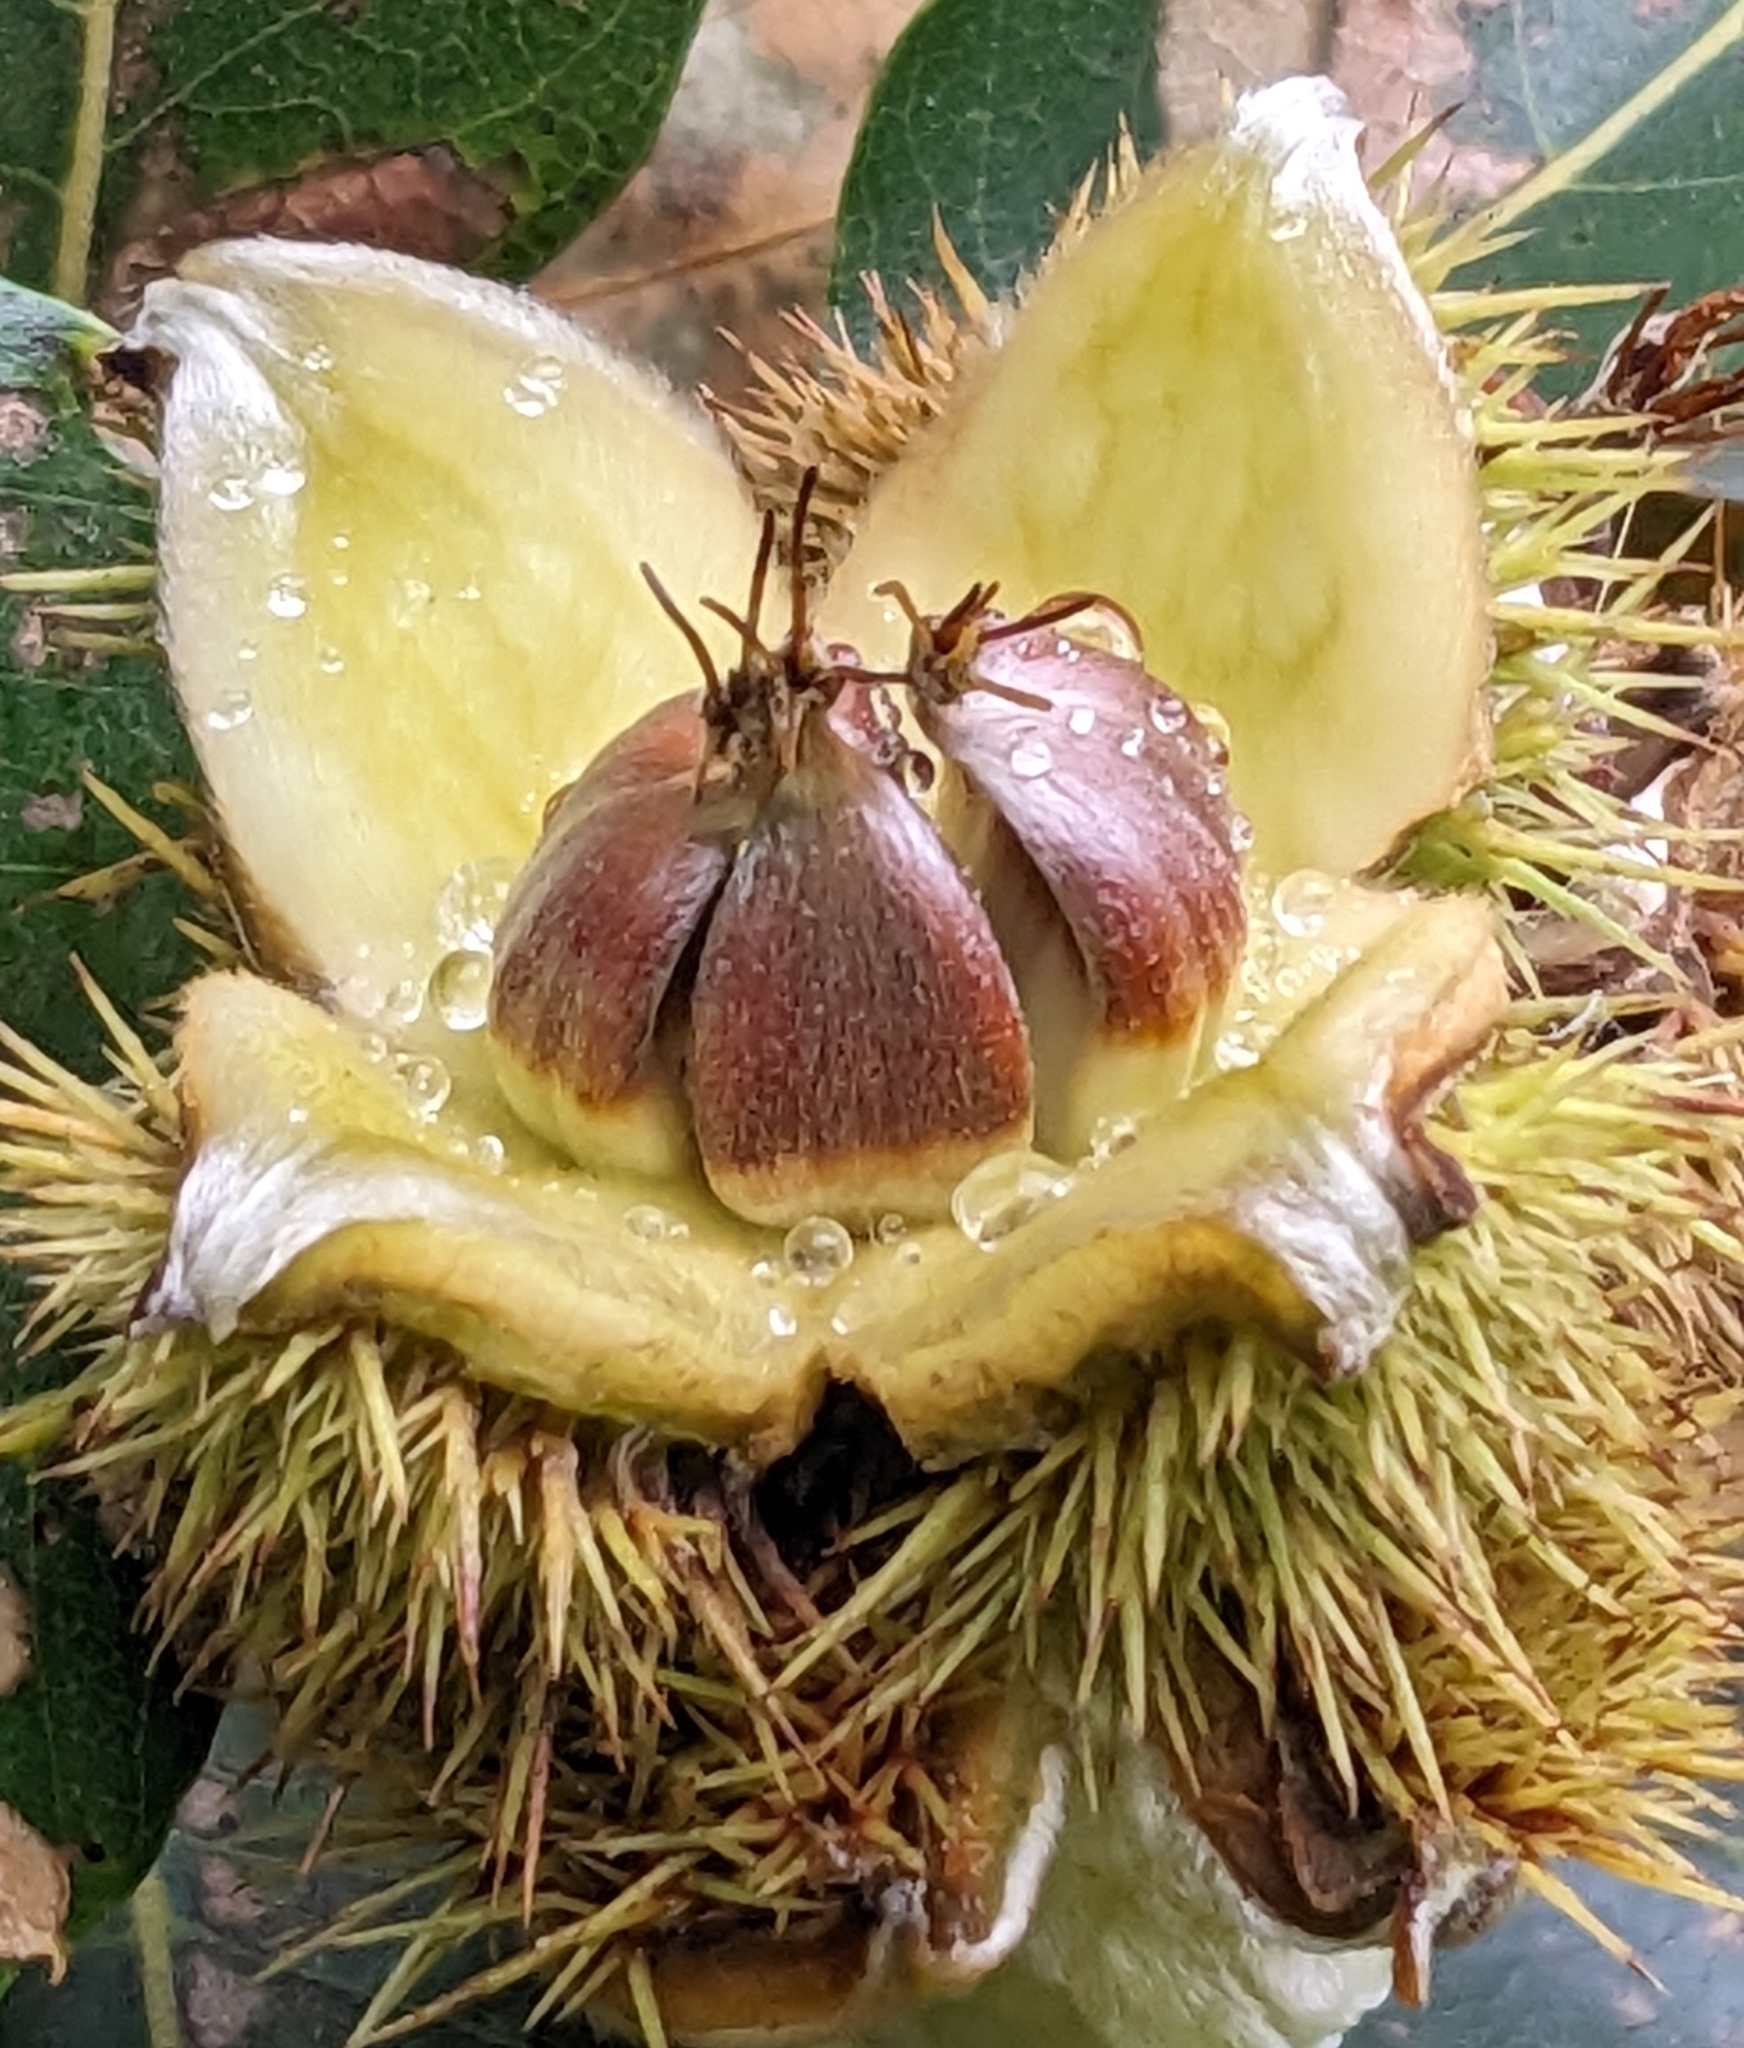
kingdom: Plantae
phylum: Tracheophyta
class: Magnoliopsida
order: Fagales
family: Fagaceae
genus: Castanea
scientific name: Castanea sativa
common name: Sweet chestnut
